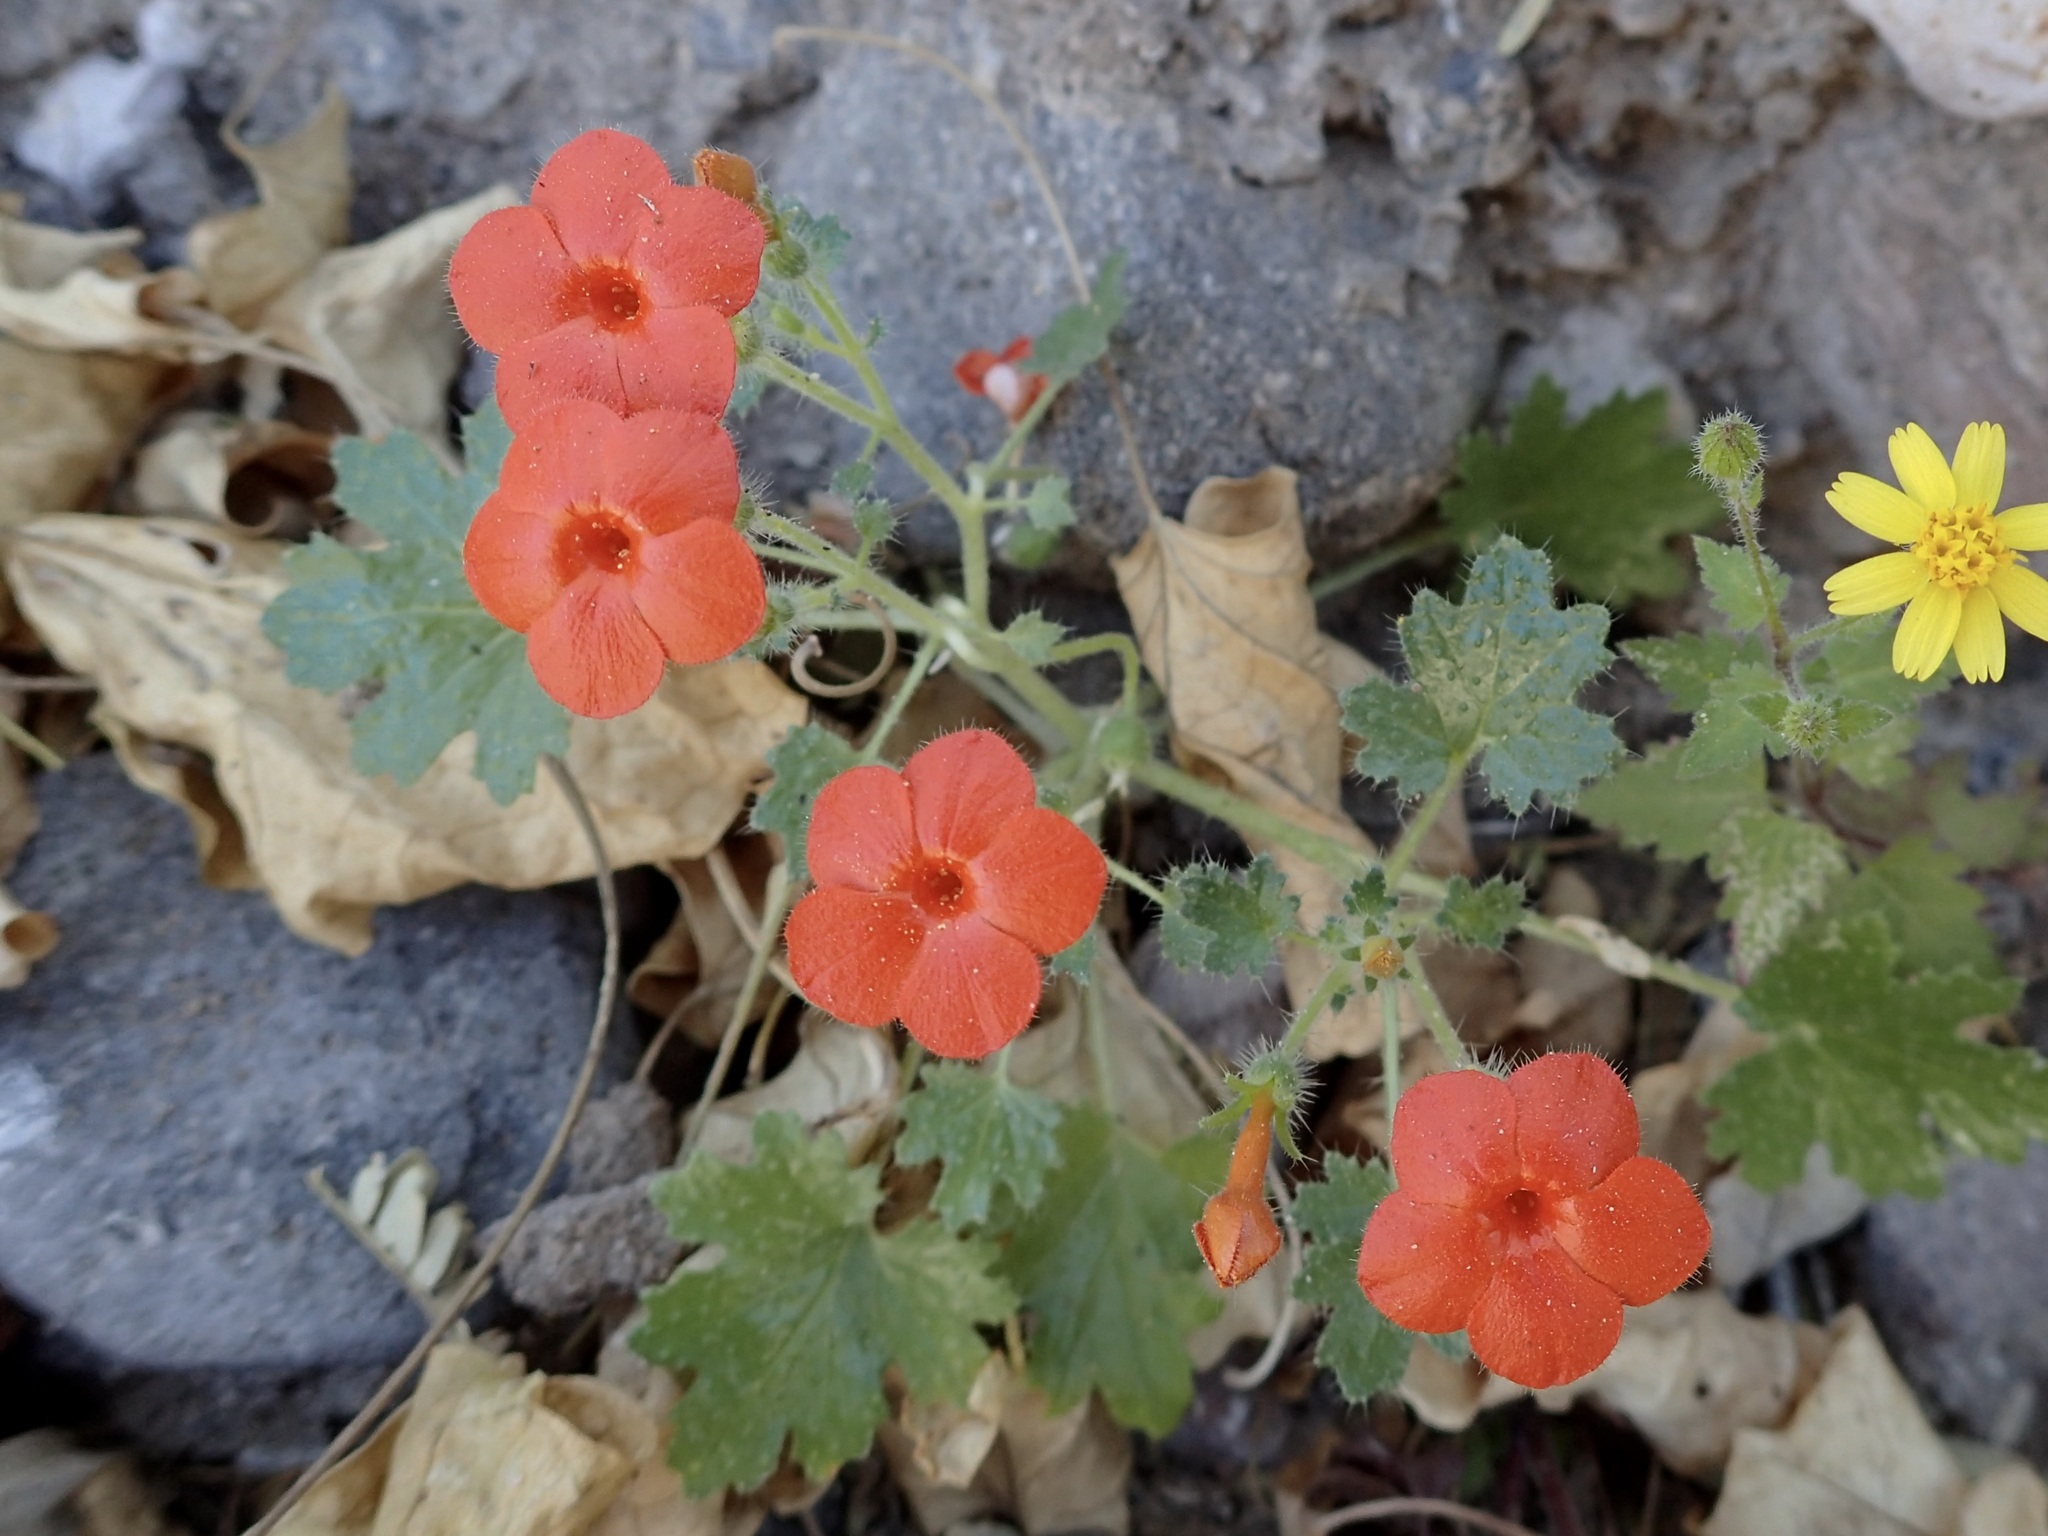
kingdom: Plantae
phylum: Tracheophyta
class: Magnoliopsida
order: Cornales
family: Loasaceae
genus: Eucnide
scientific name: Eucnide aurea
